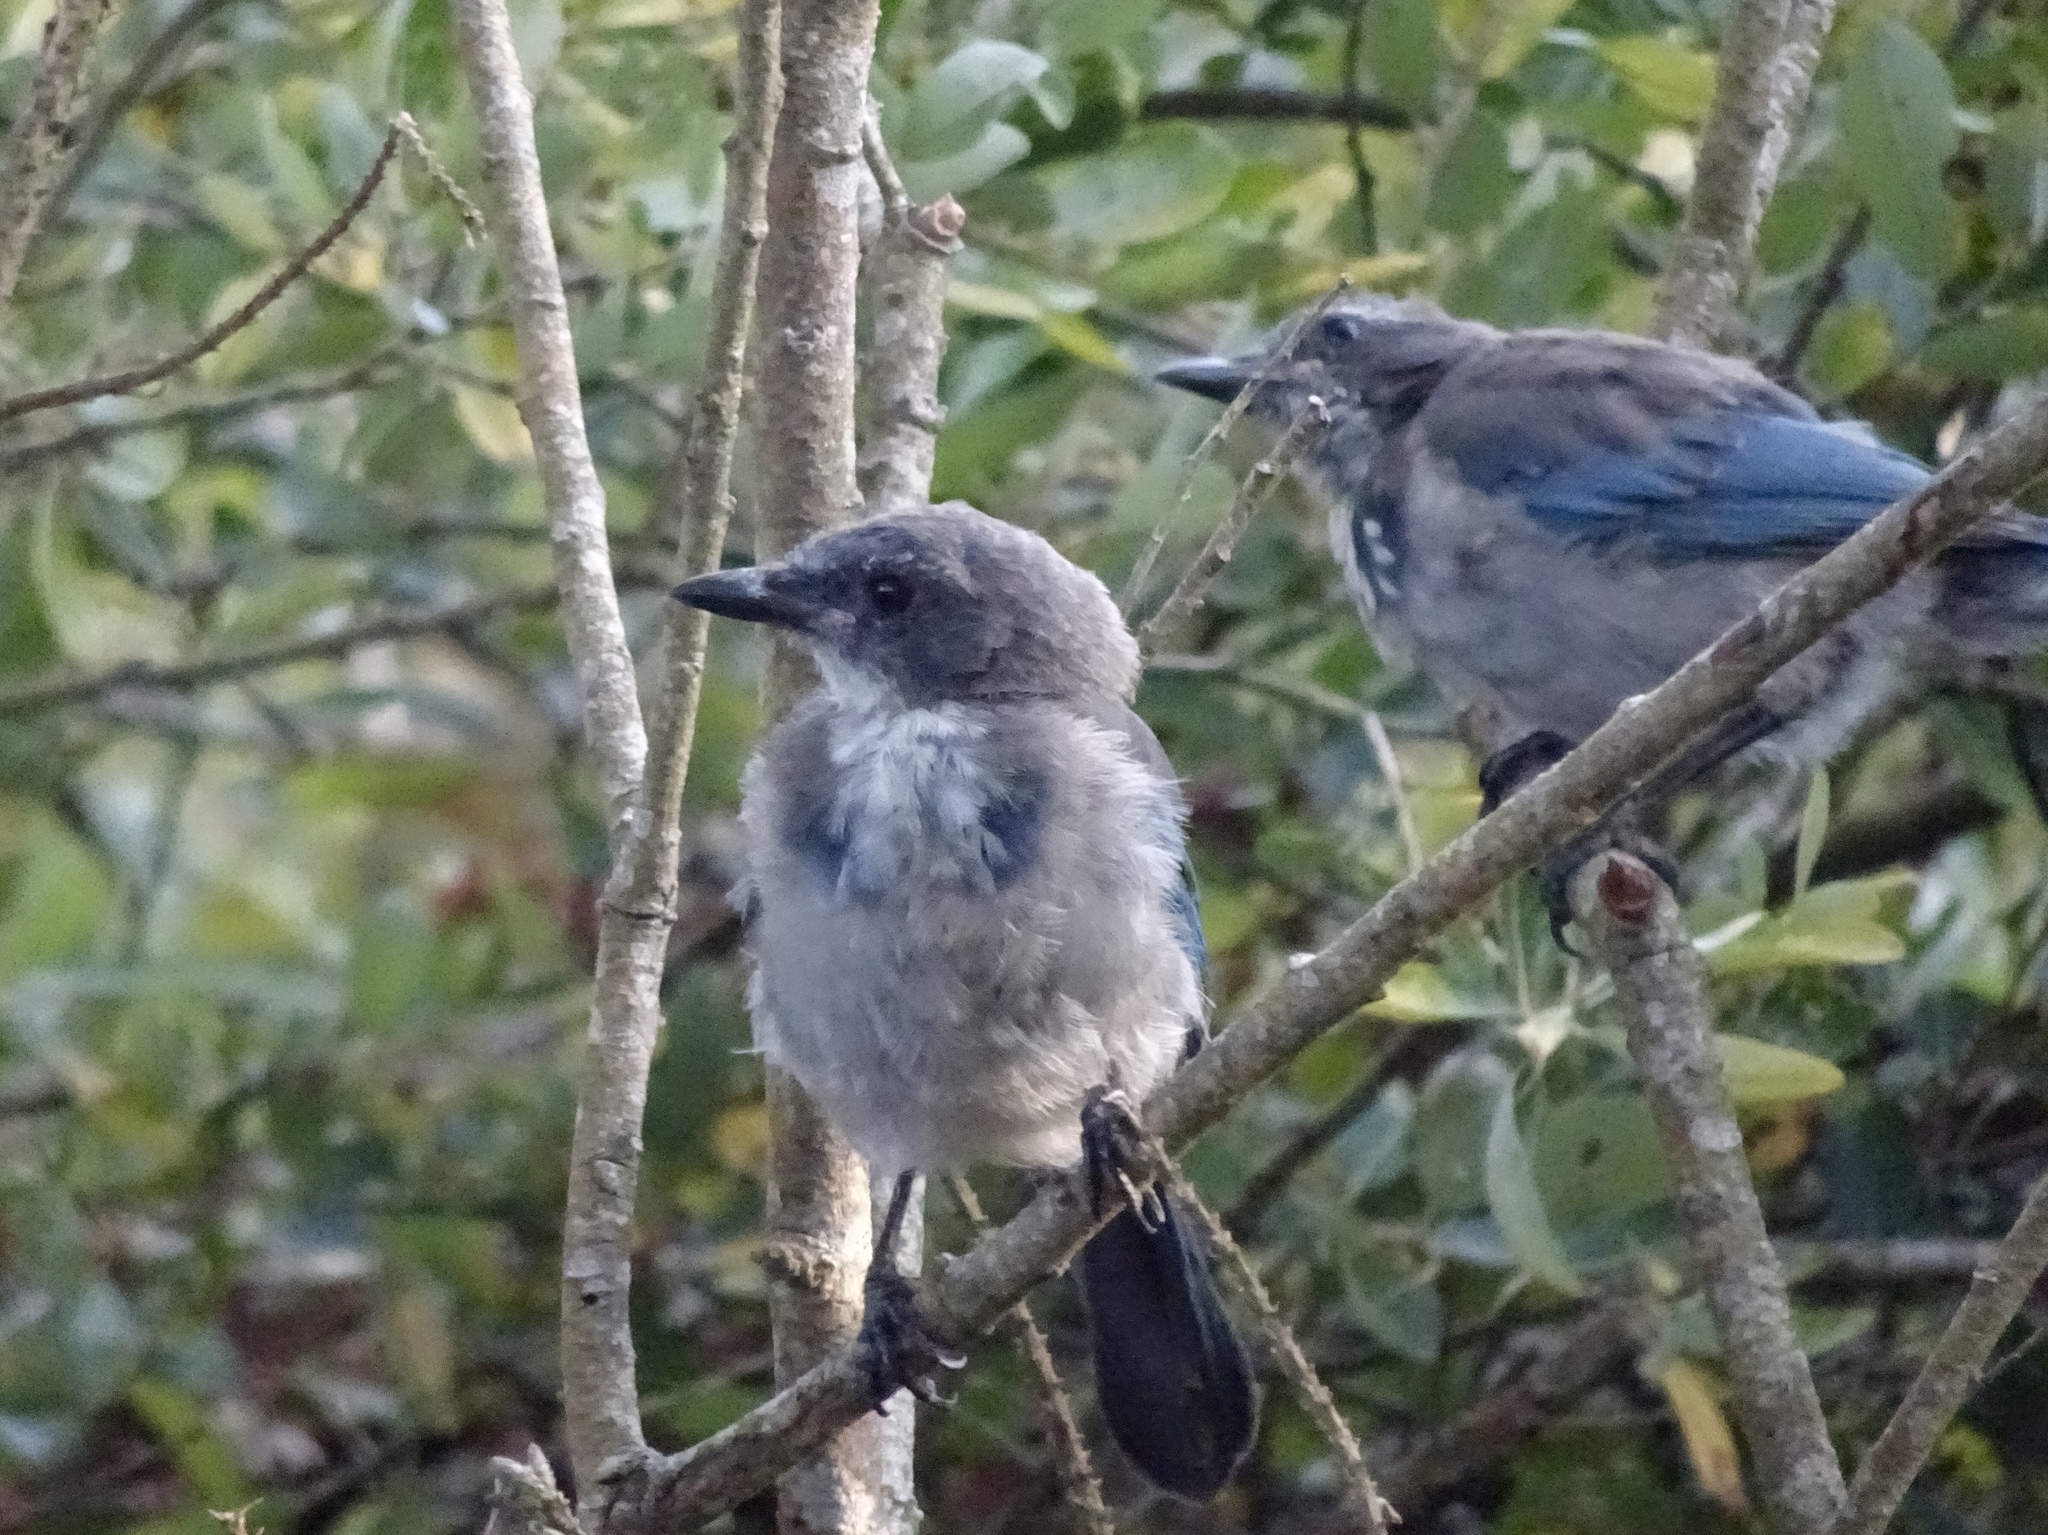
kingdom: Animalia
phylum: Chordata
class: Aves
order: Passeriformes
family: Corvidae
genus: Aphelocoma
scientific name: Aphelocoma californica
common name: California scrub-jay
